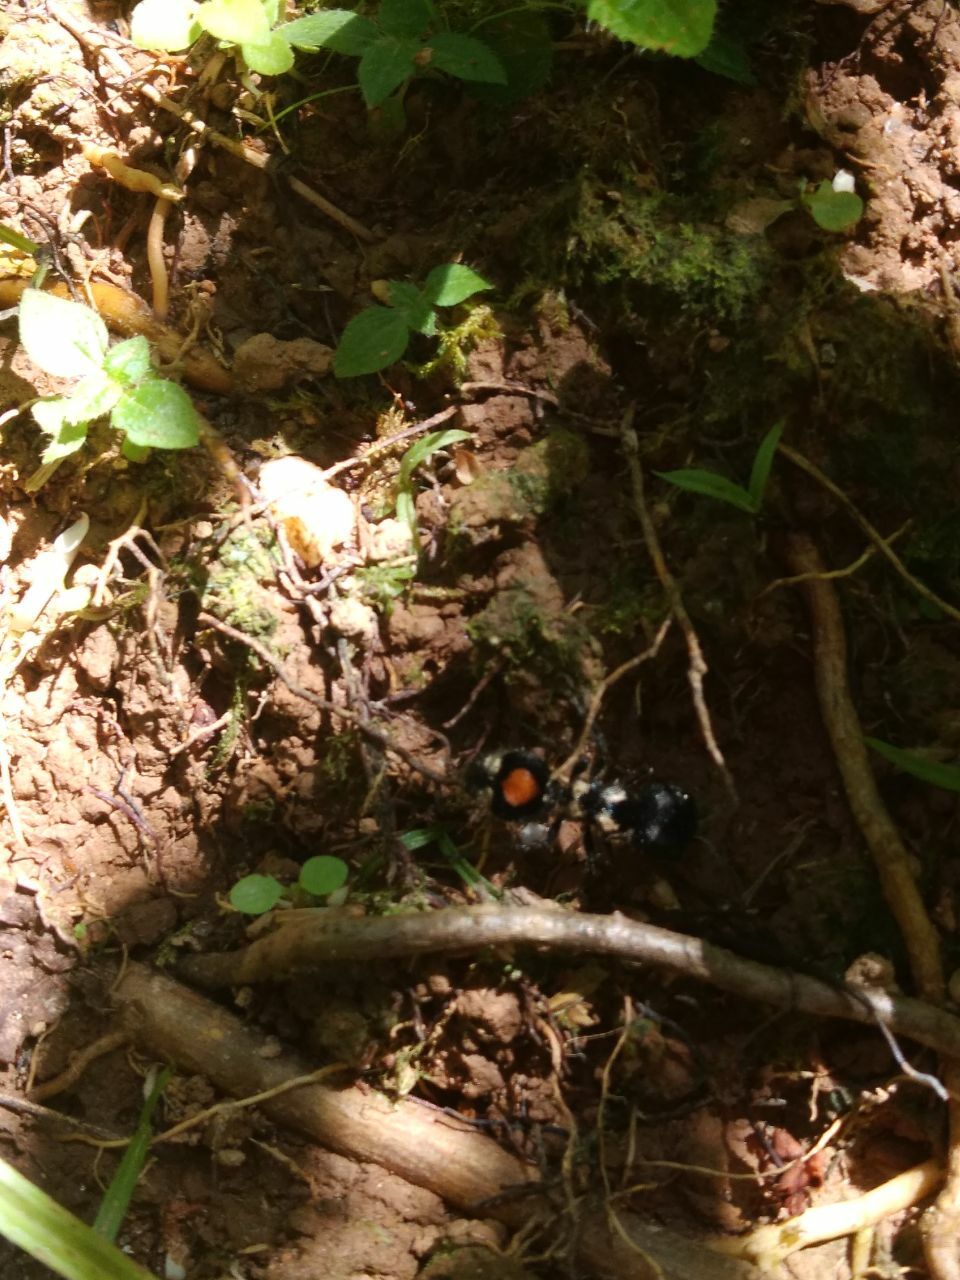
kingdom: Animalia
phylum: Arthropoda
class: Insecta
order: Hymenoptera
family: Mutillidae
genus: Hoplocrates
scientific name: Hoplocrates
